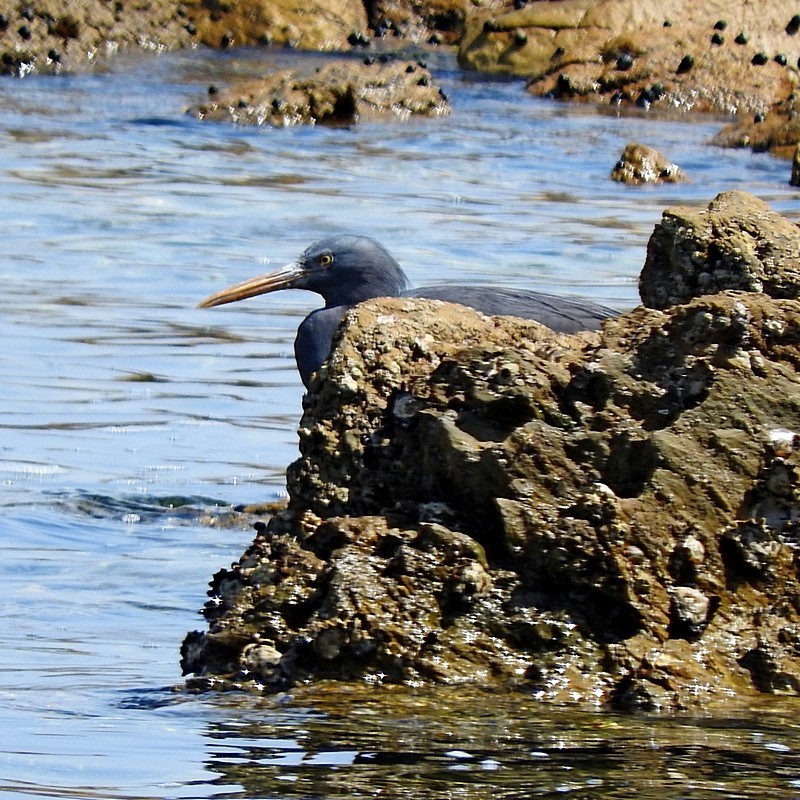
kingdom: Animalia
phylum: Chordata
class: Aves
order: Pelecaniformes
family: Ardeidae
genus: Egretta
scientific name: Egretta sacra
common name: Pacific reef heron
